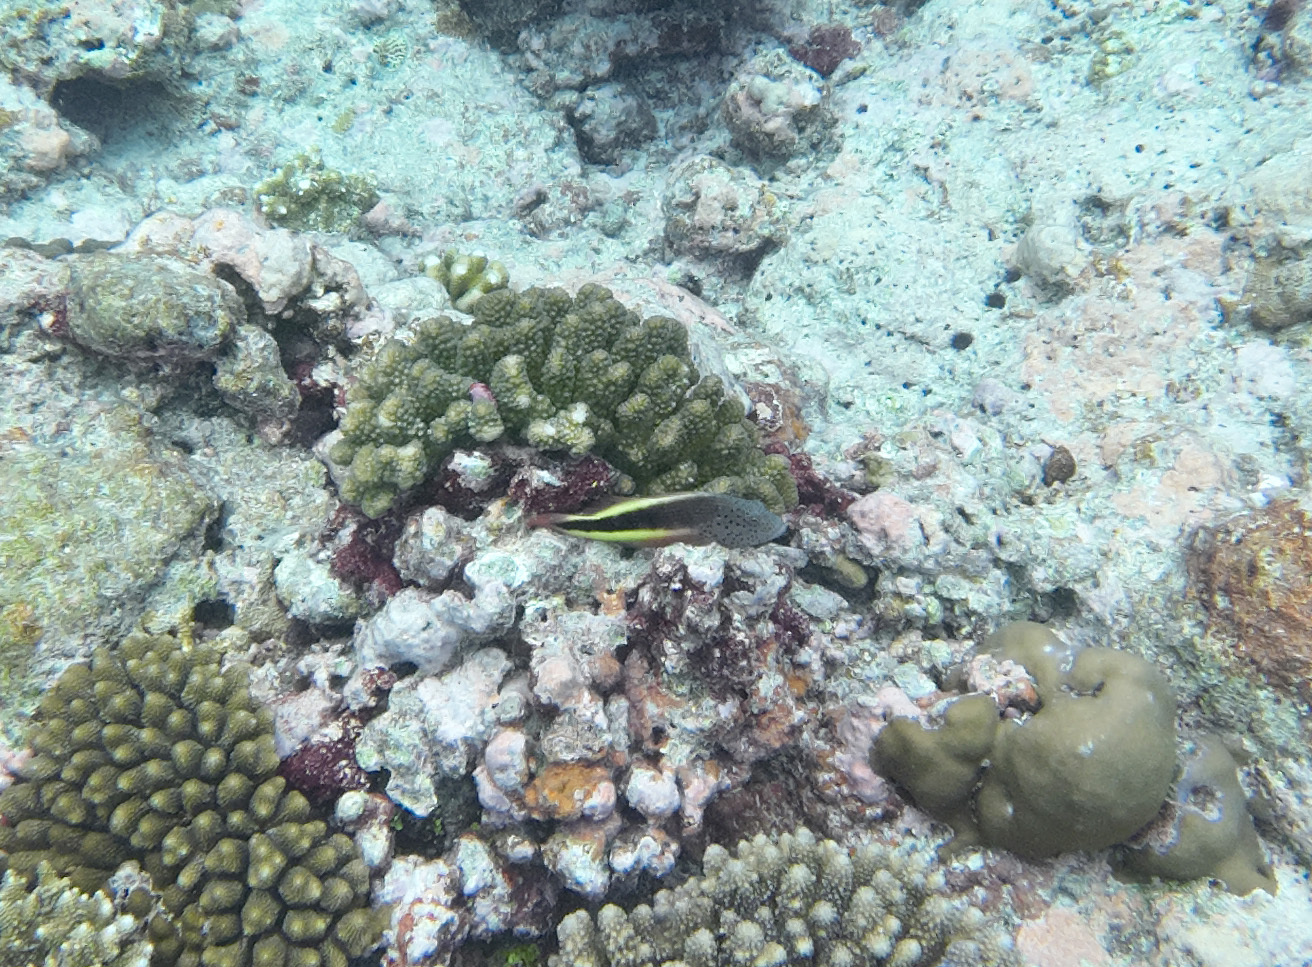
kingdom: Animalia
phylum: Chordata
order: Perciformes
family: Cirrhitidae
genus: Paracirrhites
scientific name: Paracirrhites forsteri
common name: Freckled hawkfish
